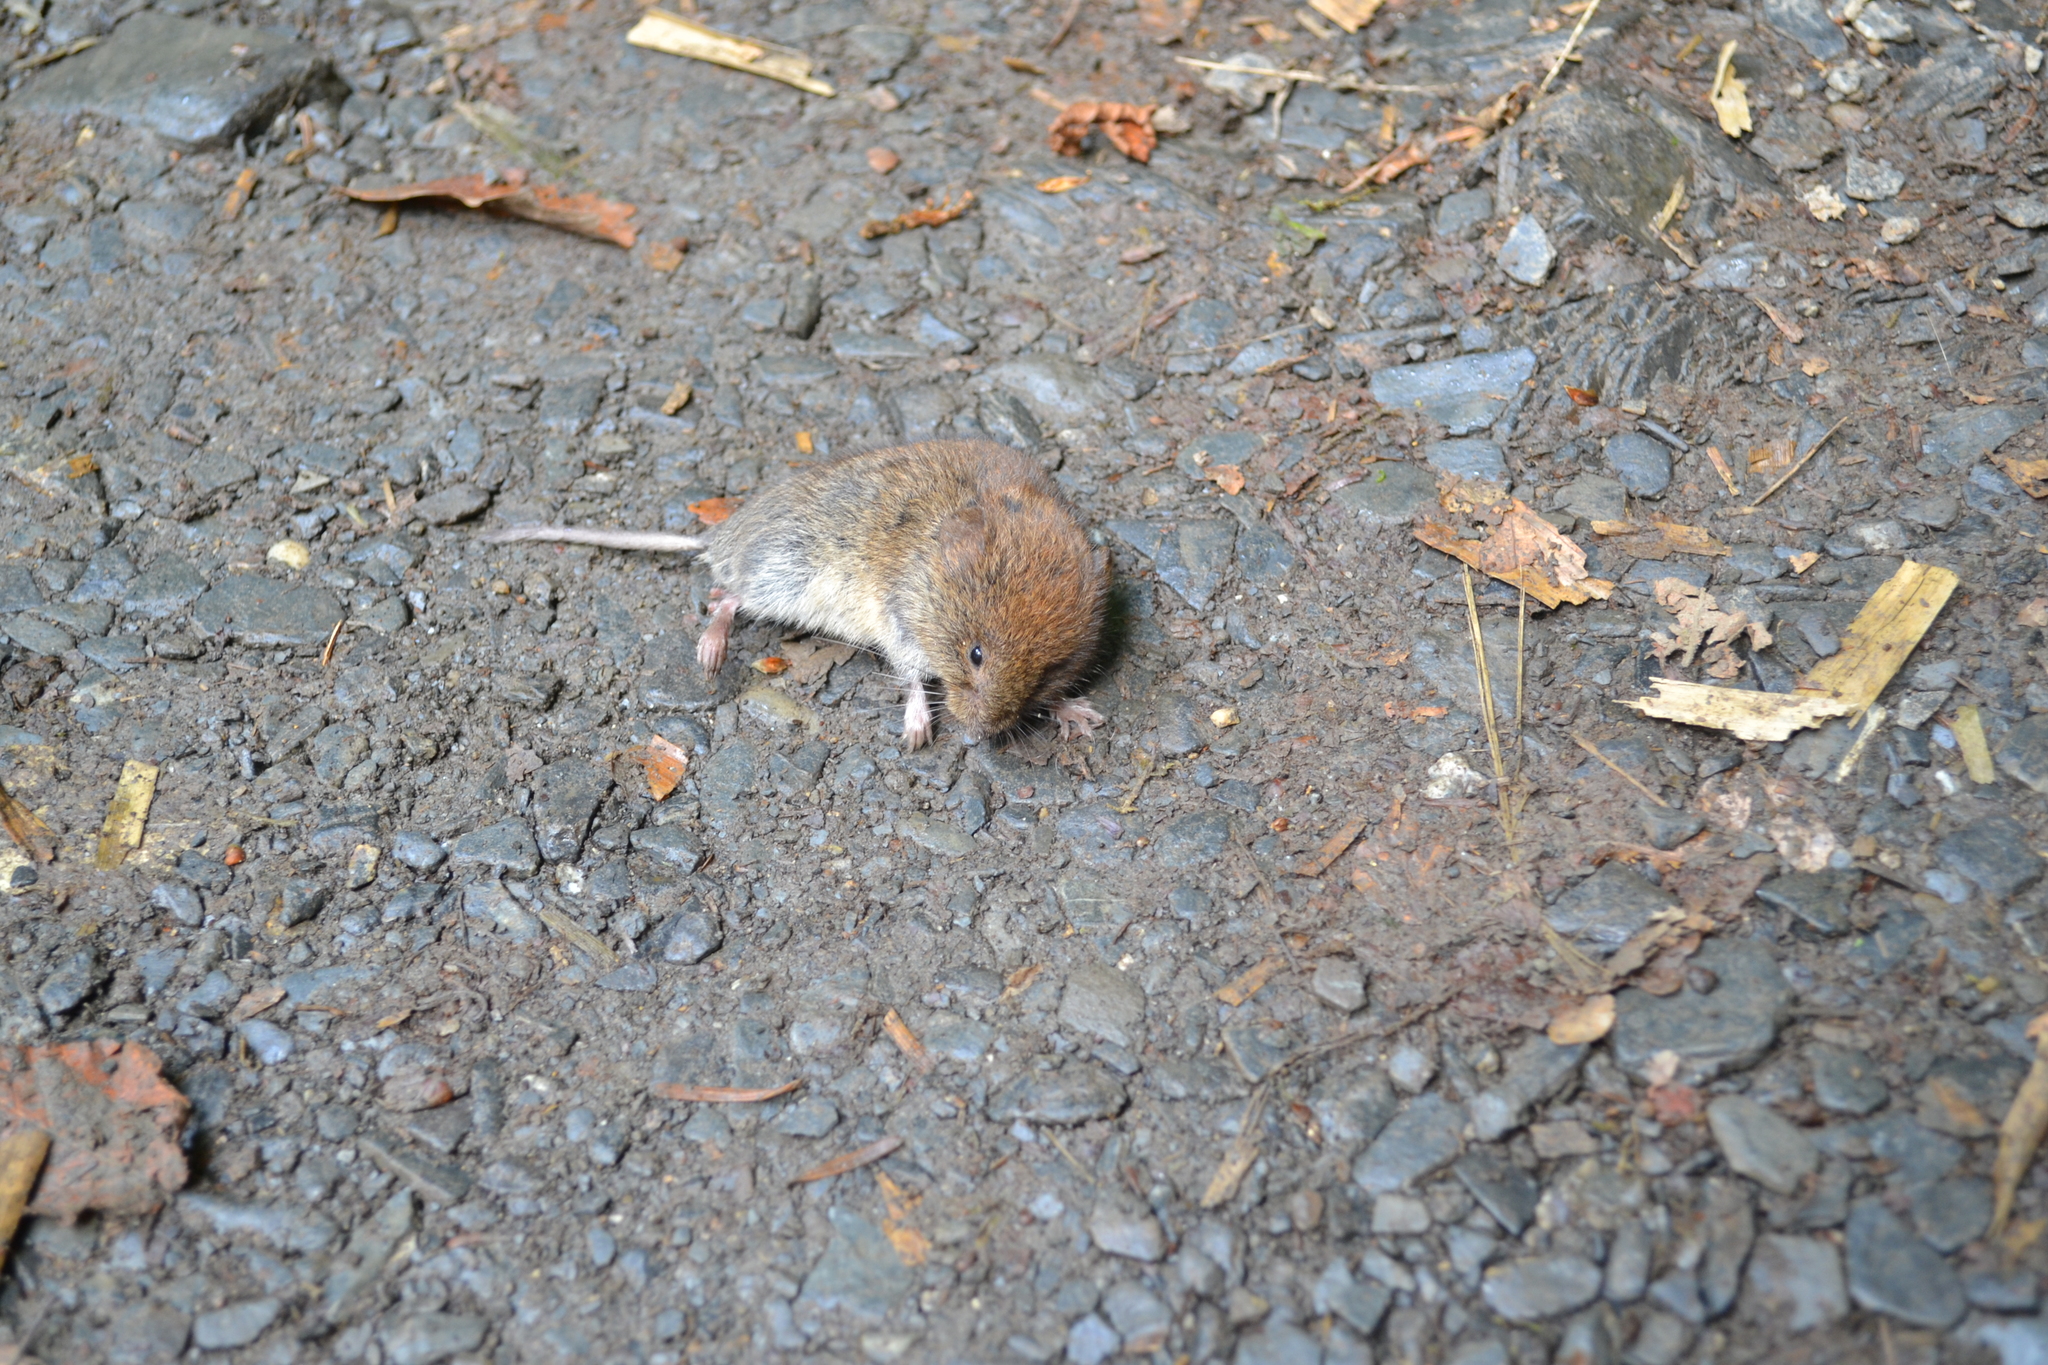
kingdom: Animalia
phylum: Chordata
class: Mammalia
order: Rodentia
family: Cricetidae
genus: Myodes
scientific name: Myodes glareolus
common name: Bank vole
